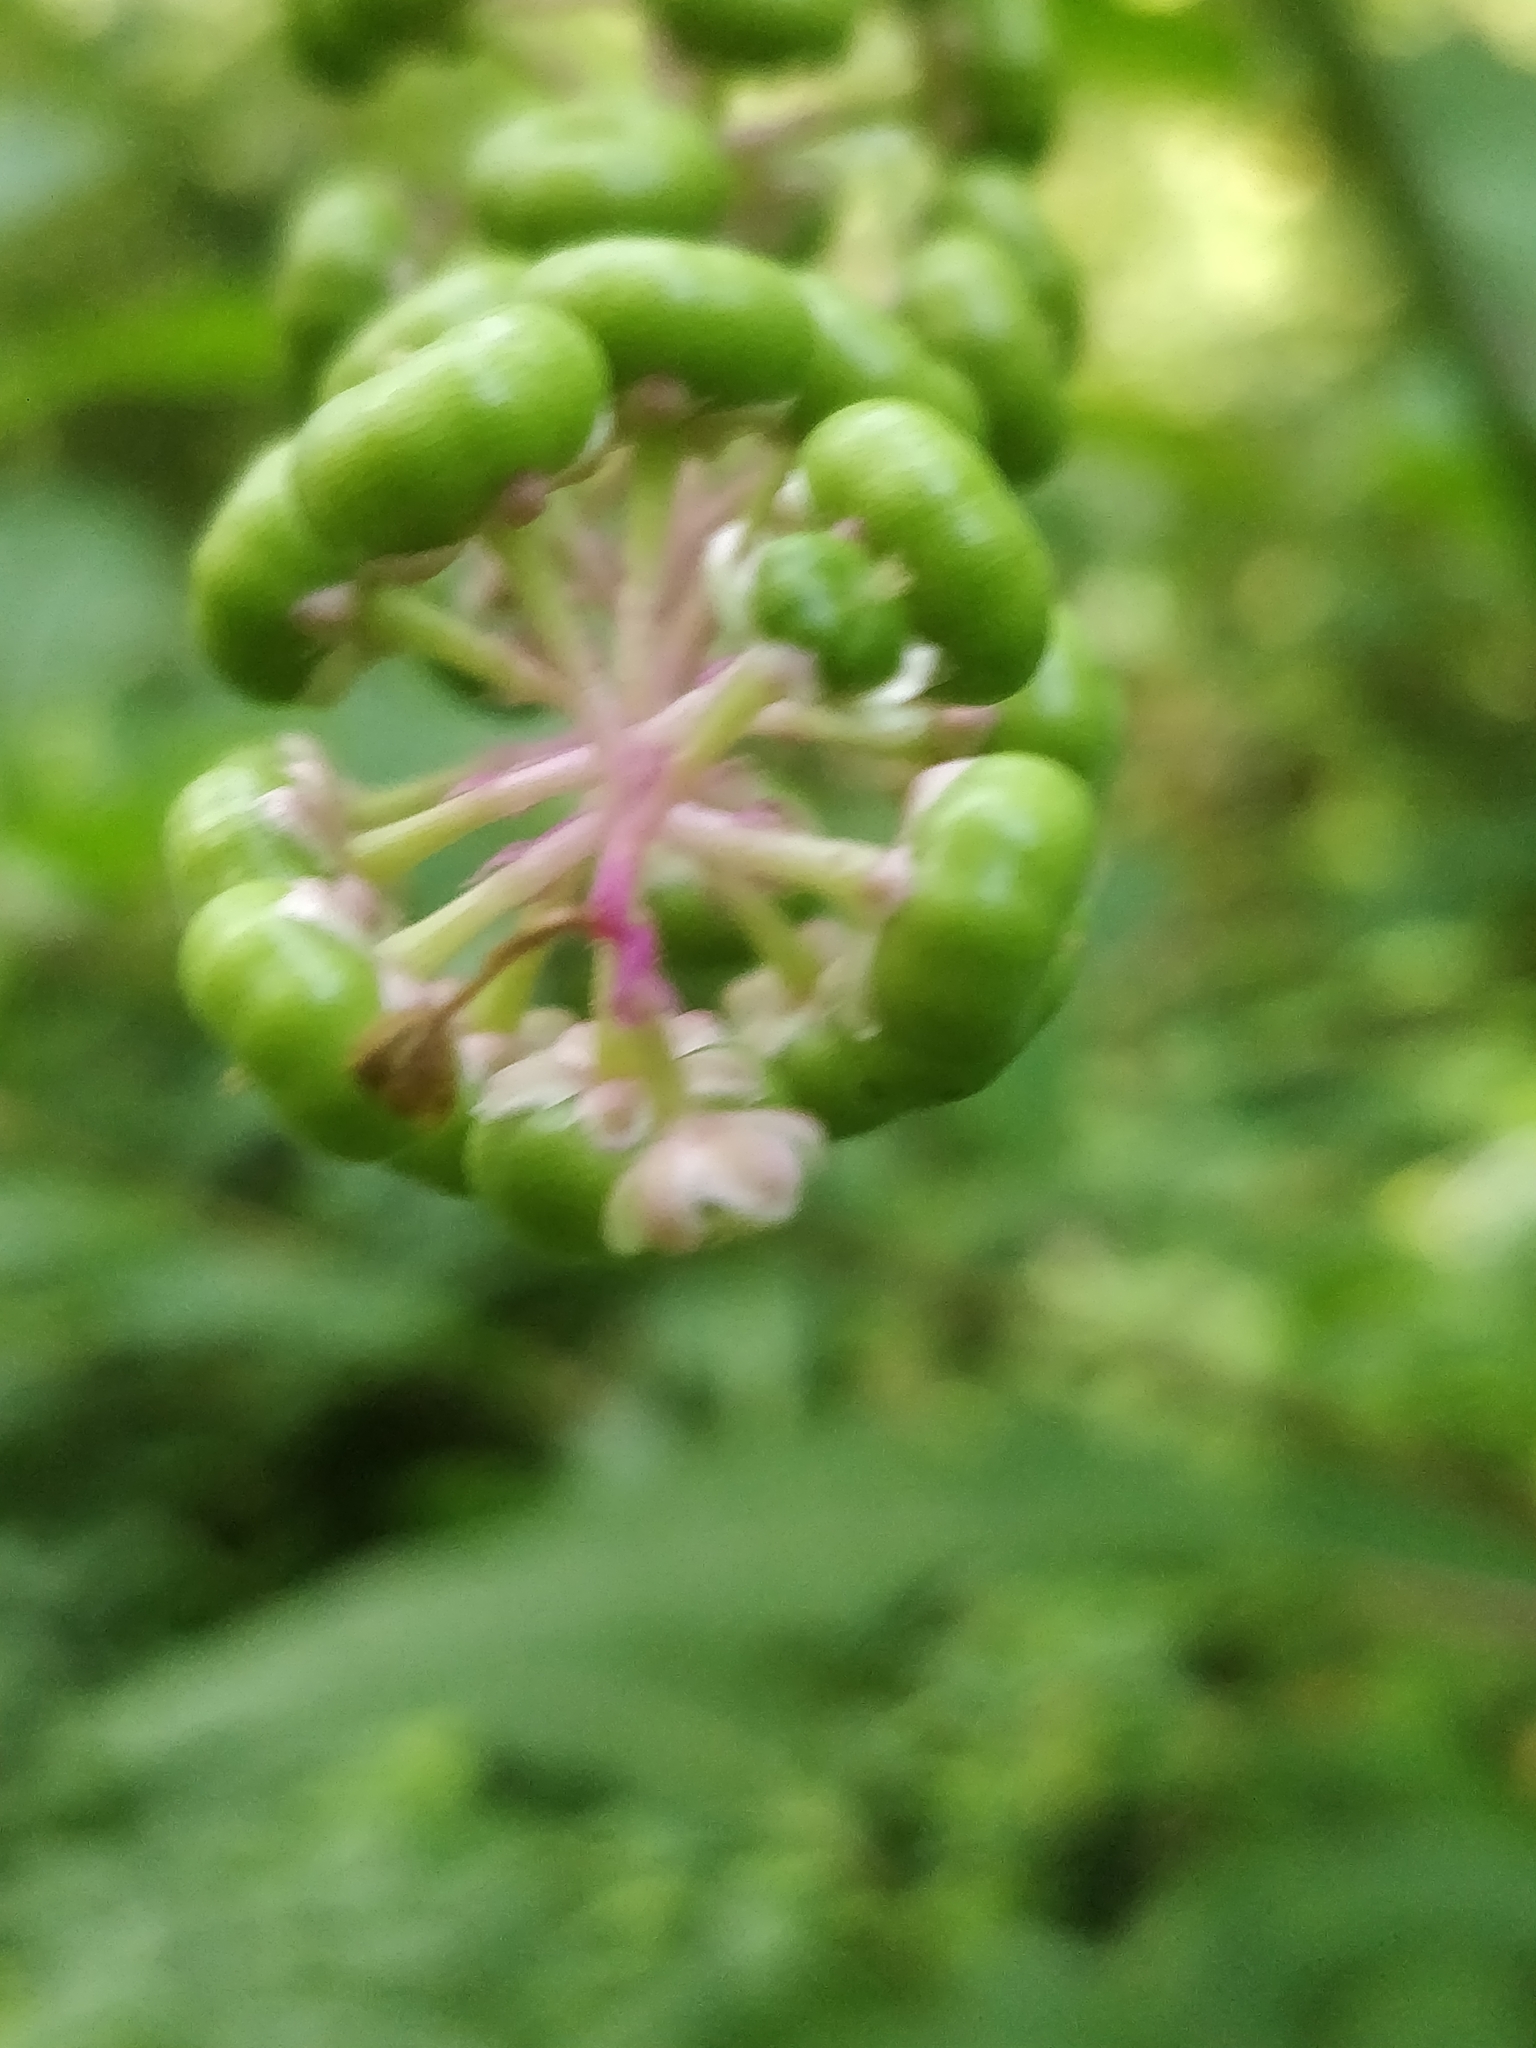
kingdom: Plantae
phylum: Tracheophyta
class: Magnoliopsida
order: Caryophyllales
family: Phytolaccaceae
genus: Phytolacca
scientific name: Phytolacca americana
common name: American pokeweed
